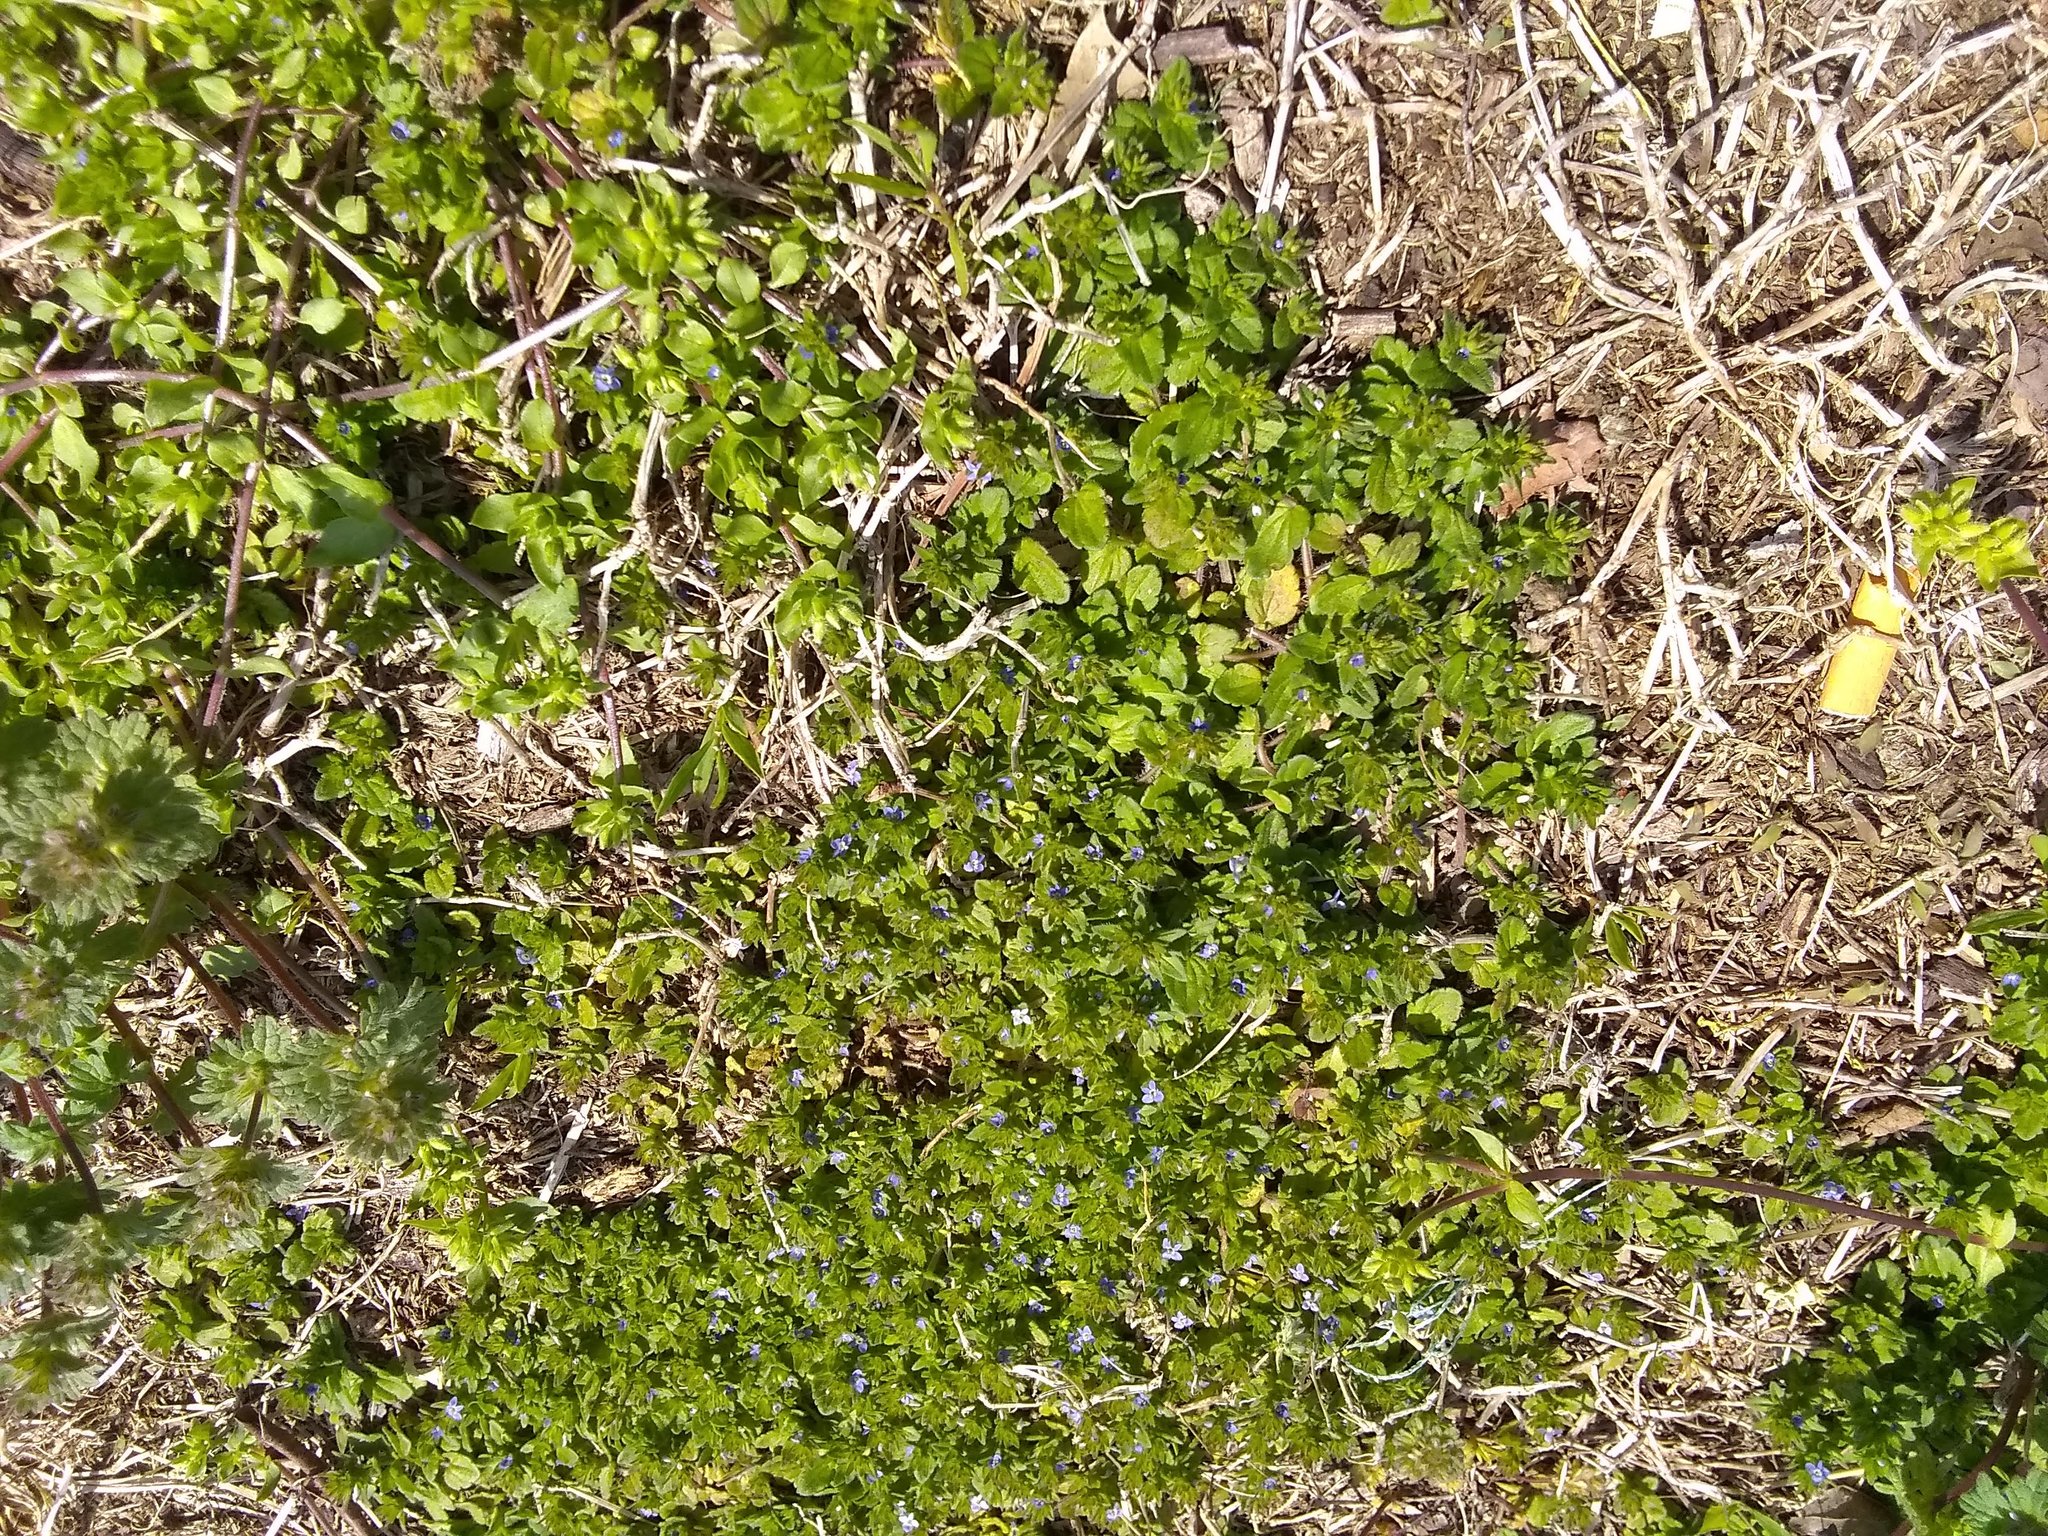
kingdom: Plantae
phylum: Tracheophyta
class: Magnoliopsida
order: Lamiales
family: Plantaginaceae
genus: Veronica
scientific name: Veronica arvensis
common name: Corn speedwell
